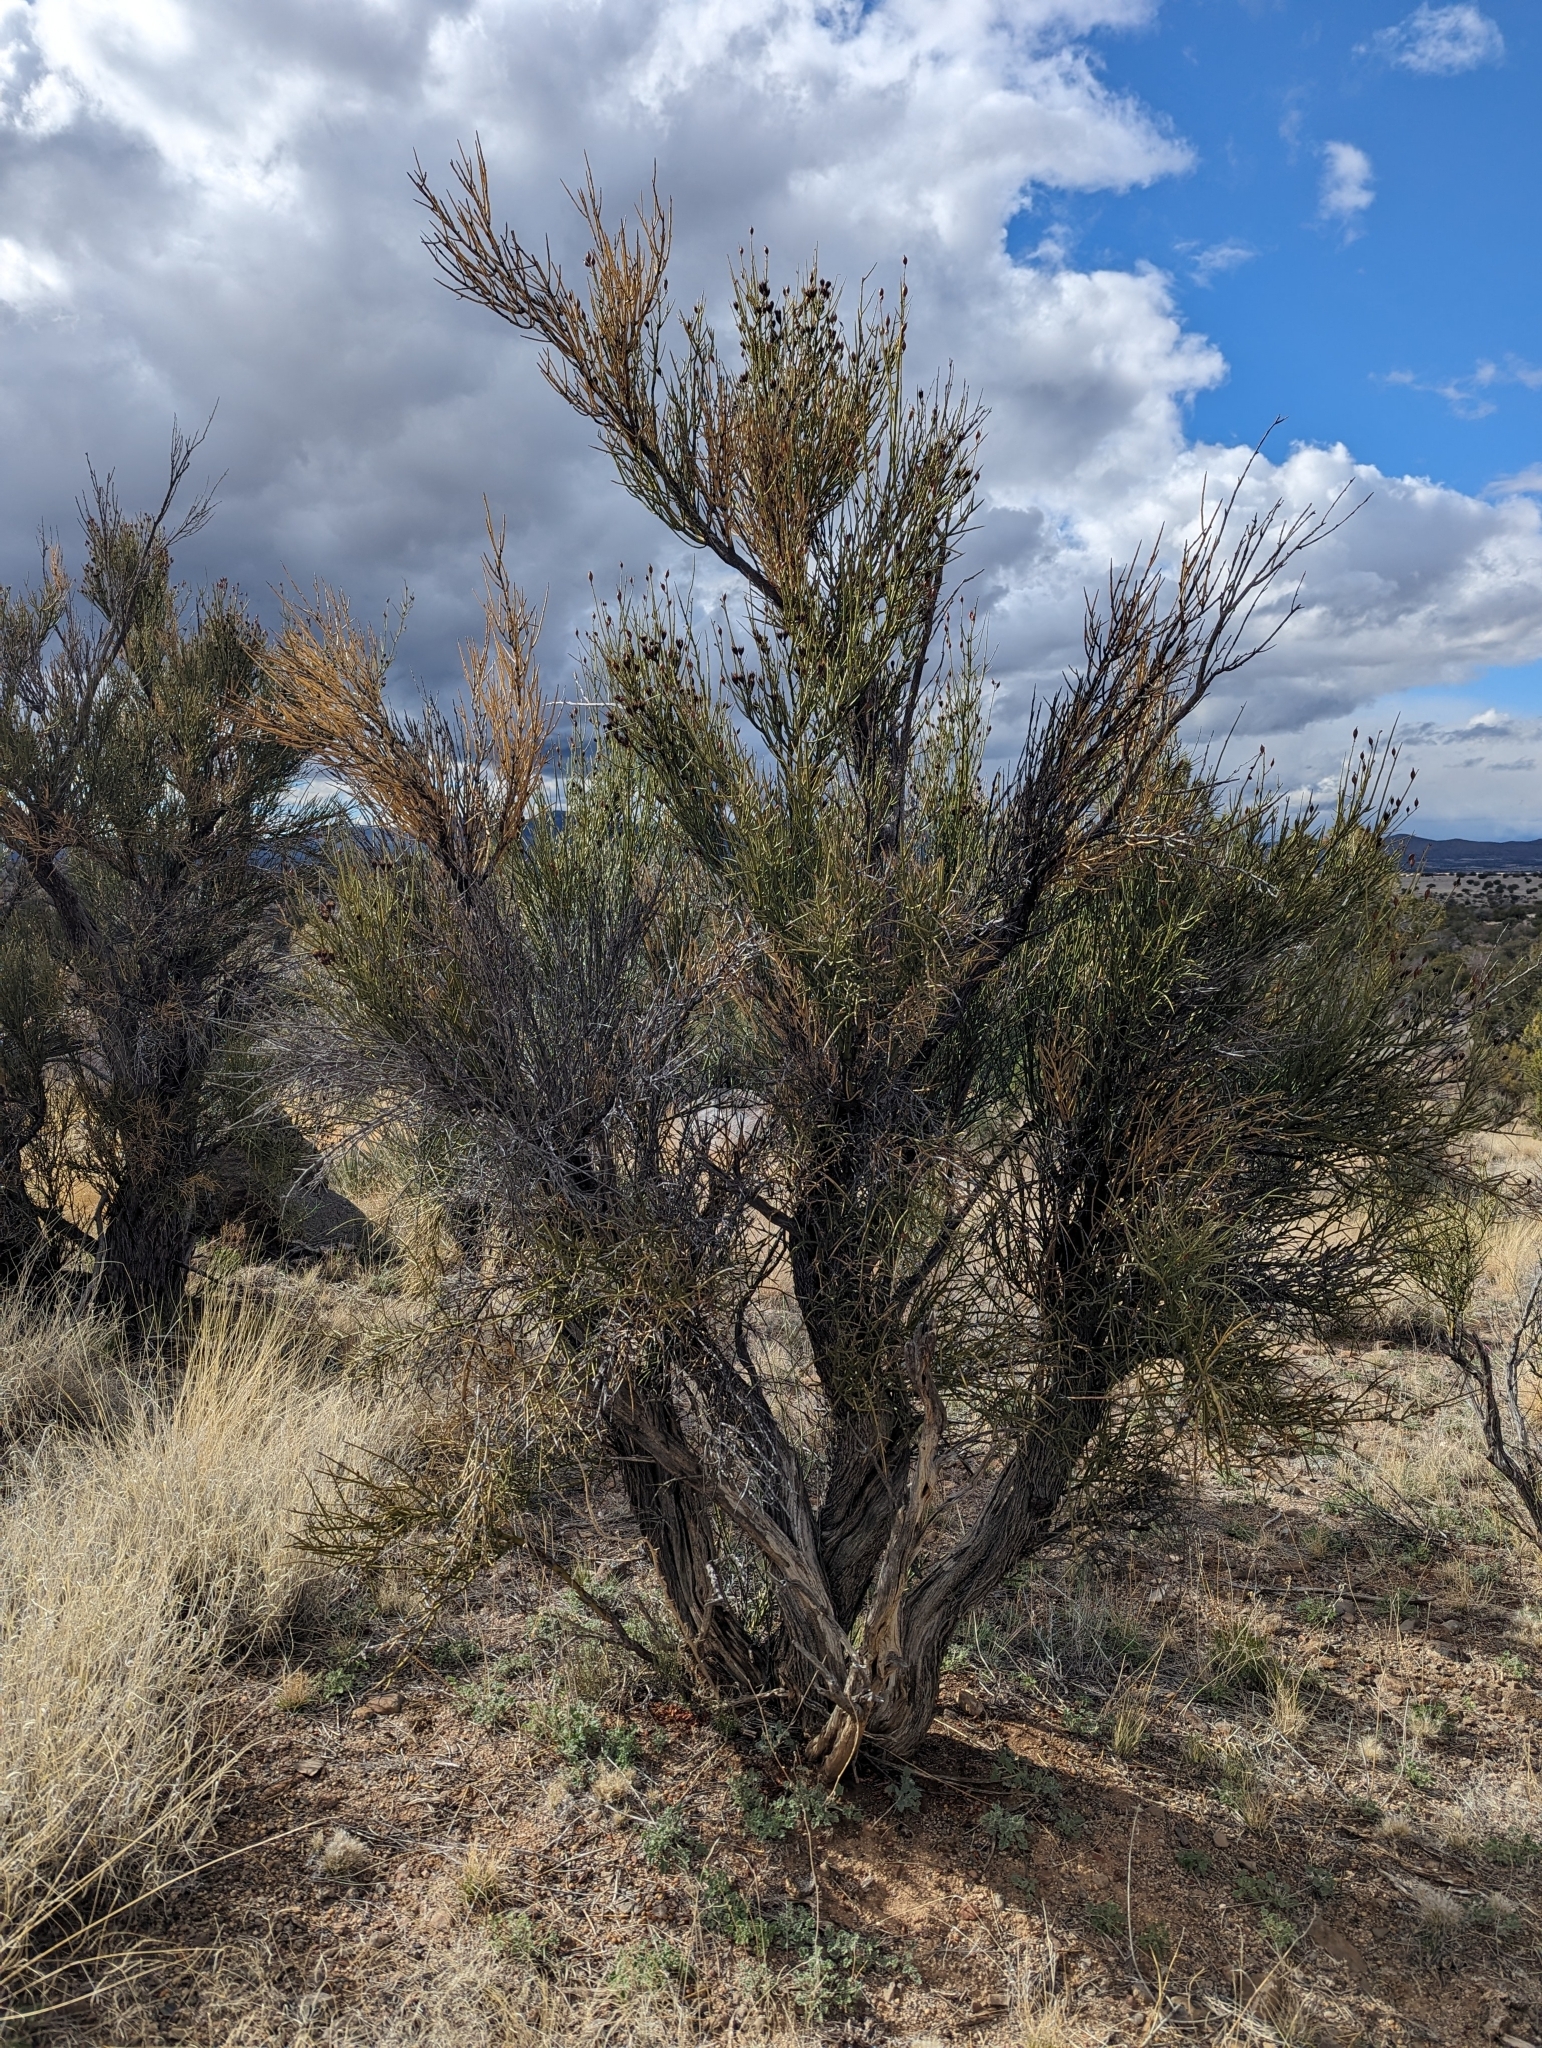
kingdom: Plantae
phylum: Tracheophyta
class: Magnoliopsida
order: Celastrales
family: Celastraceae
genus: Canotia
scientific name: Canotia holacantha
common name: Crucifixion thorns
